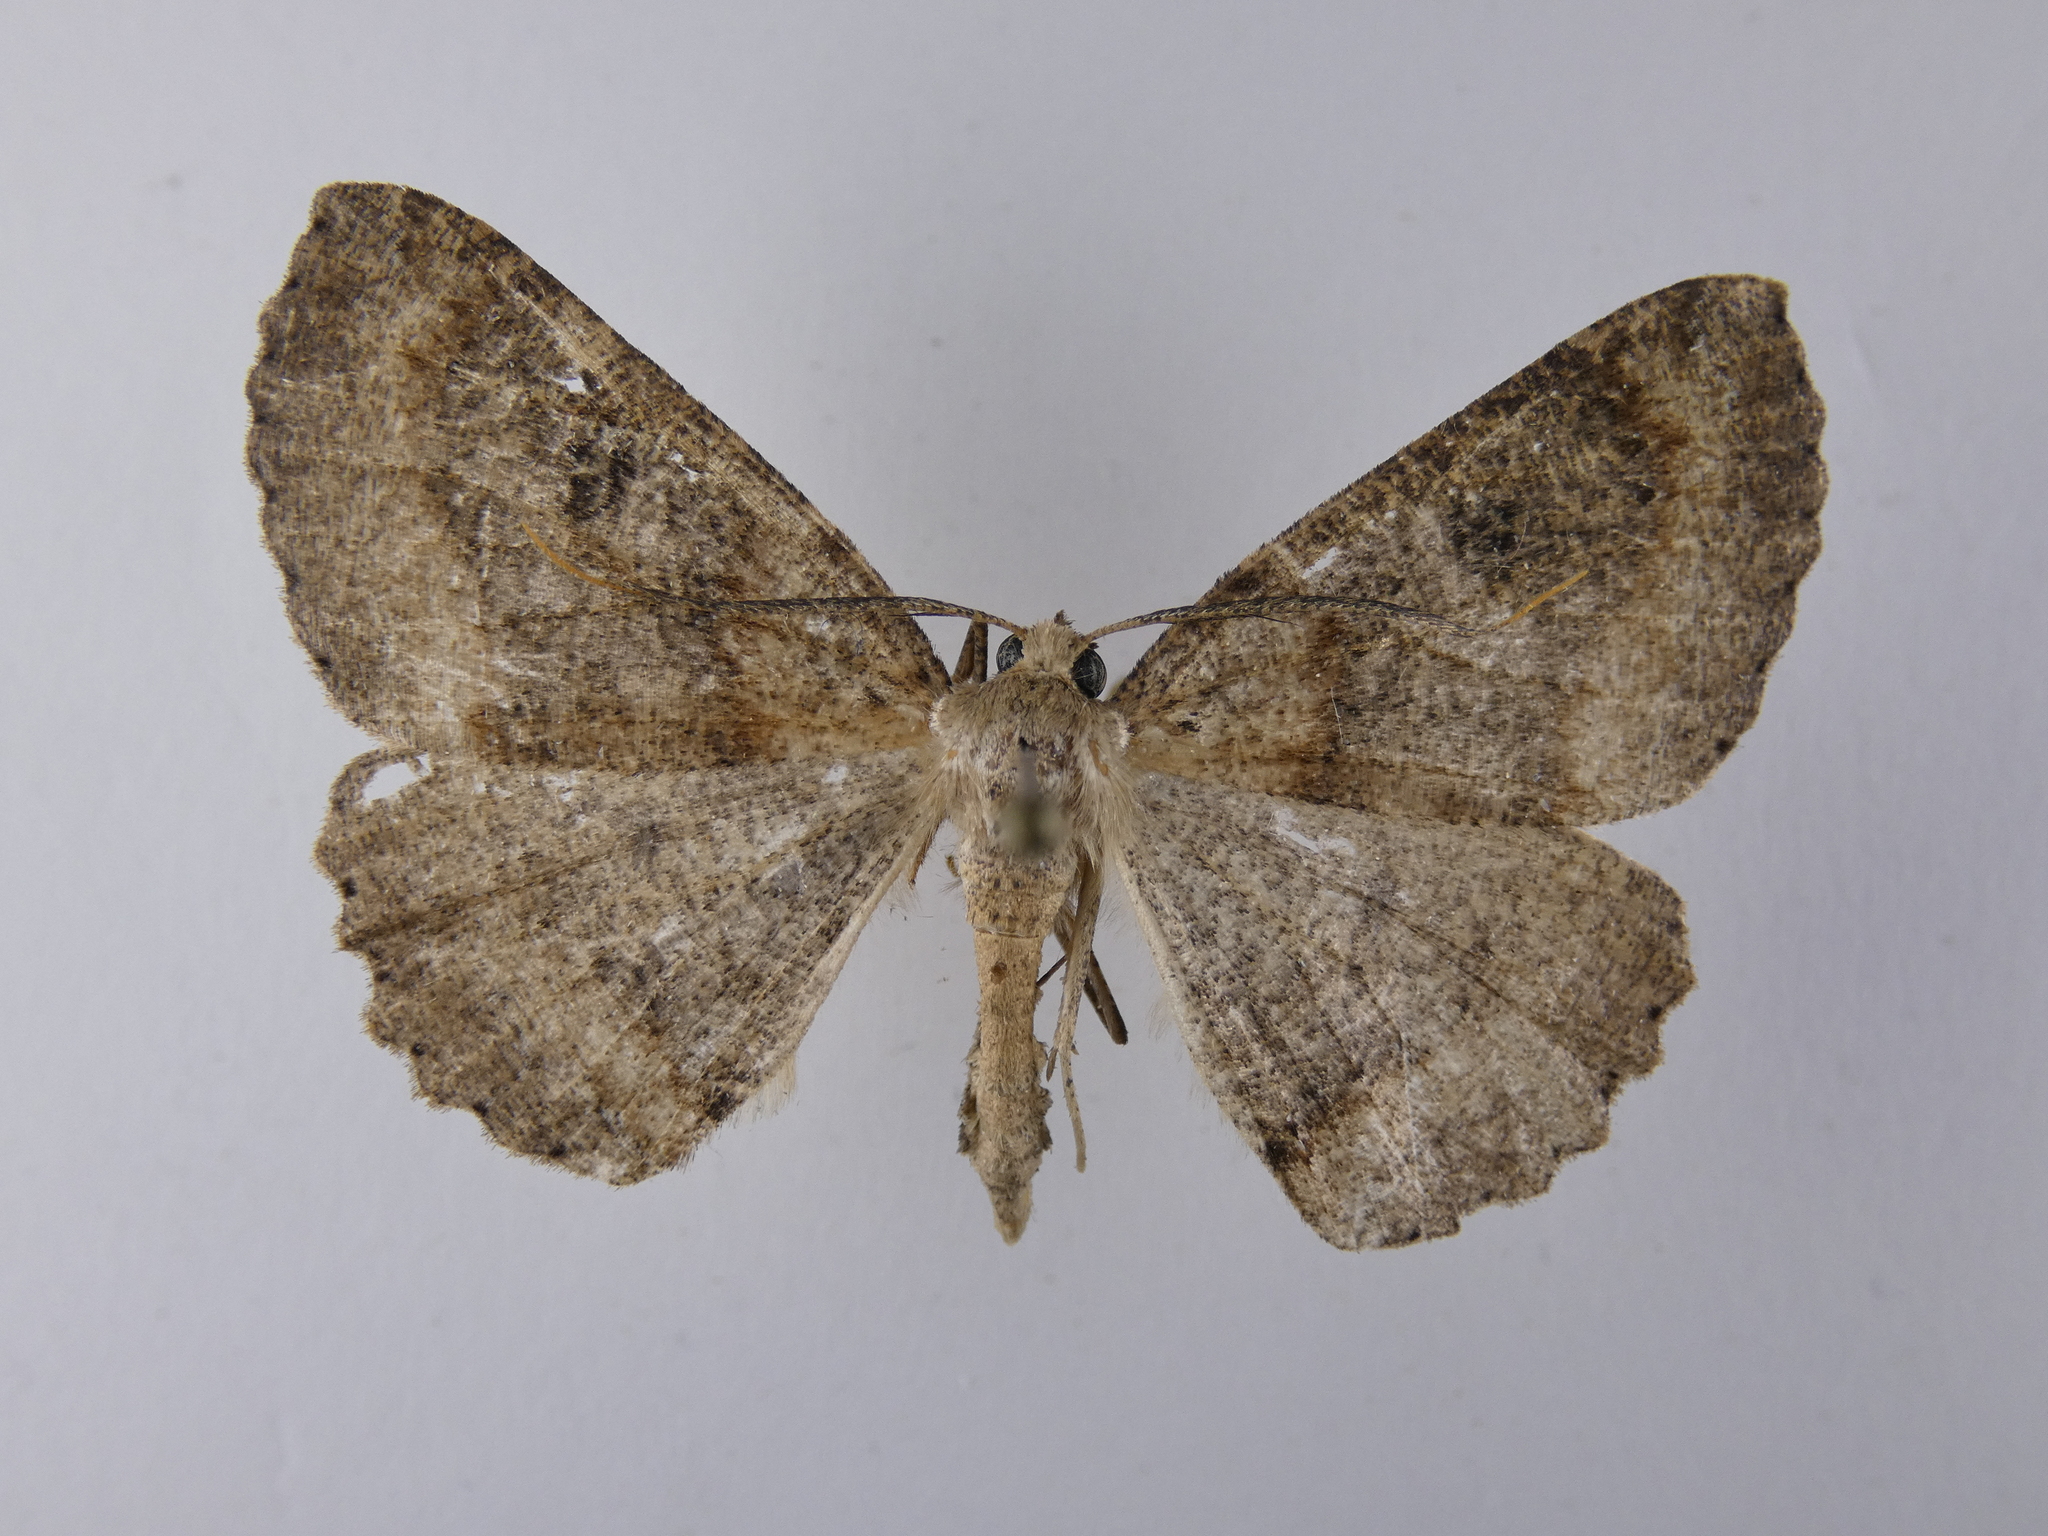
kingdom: Animalia
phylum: Arthropoda
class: Insecta
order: Lepidoptera
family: Geometridae
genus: Cleora
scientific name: Cleora scriptaria
